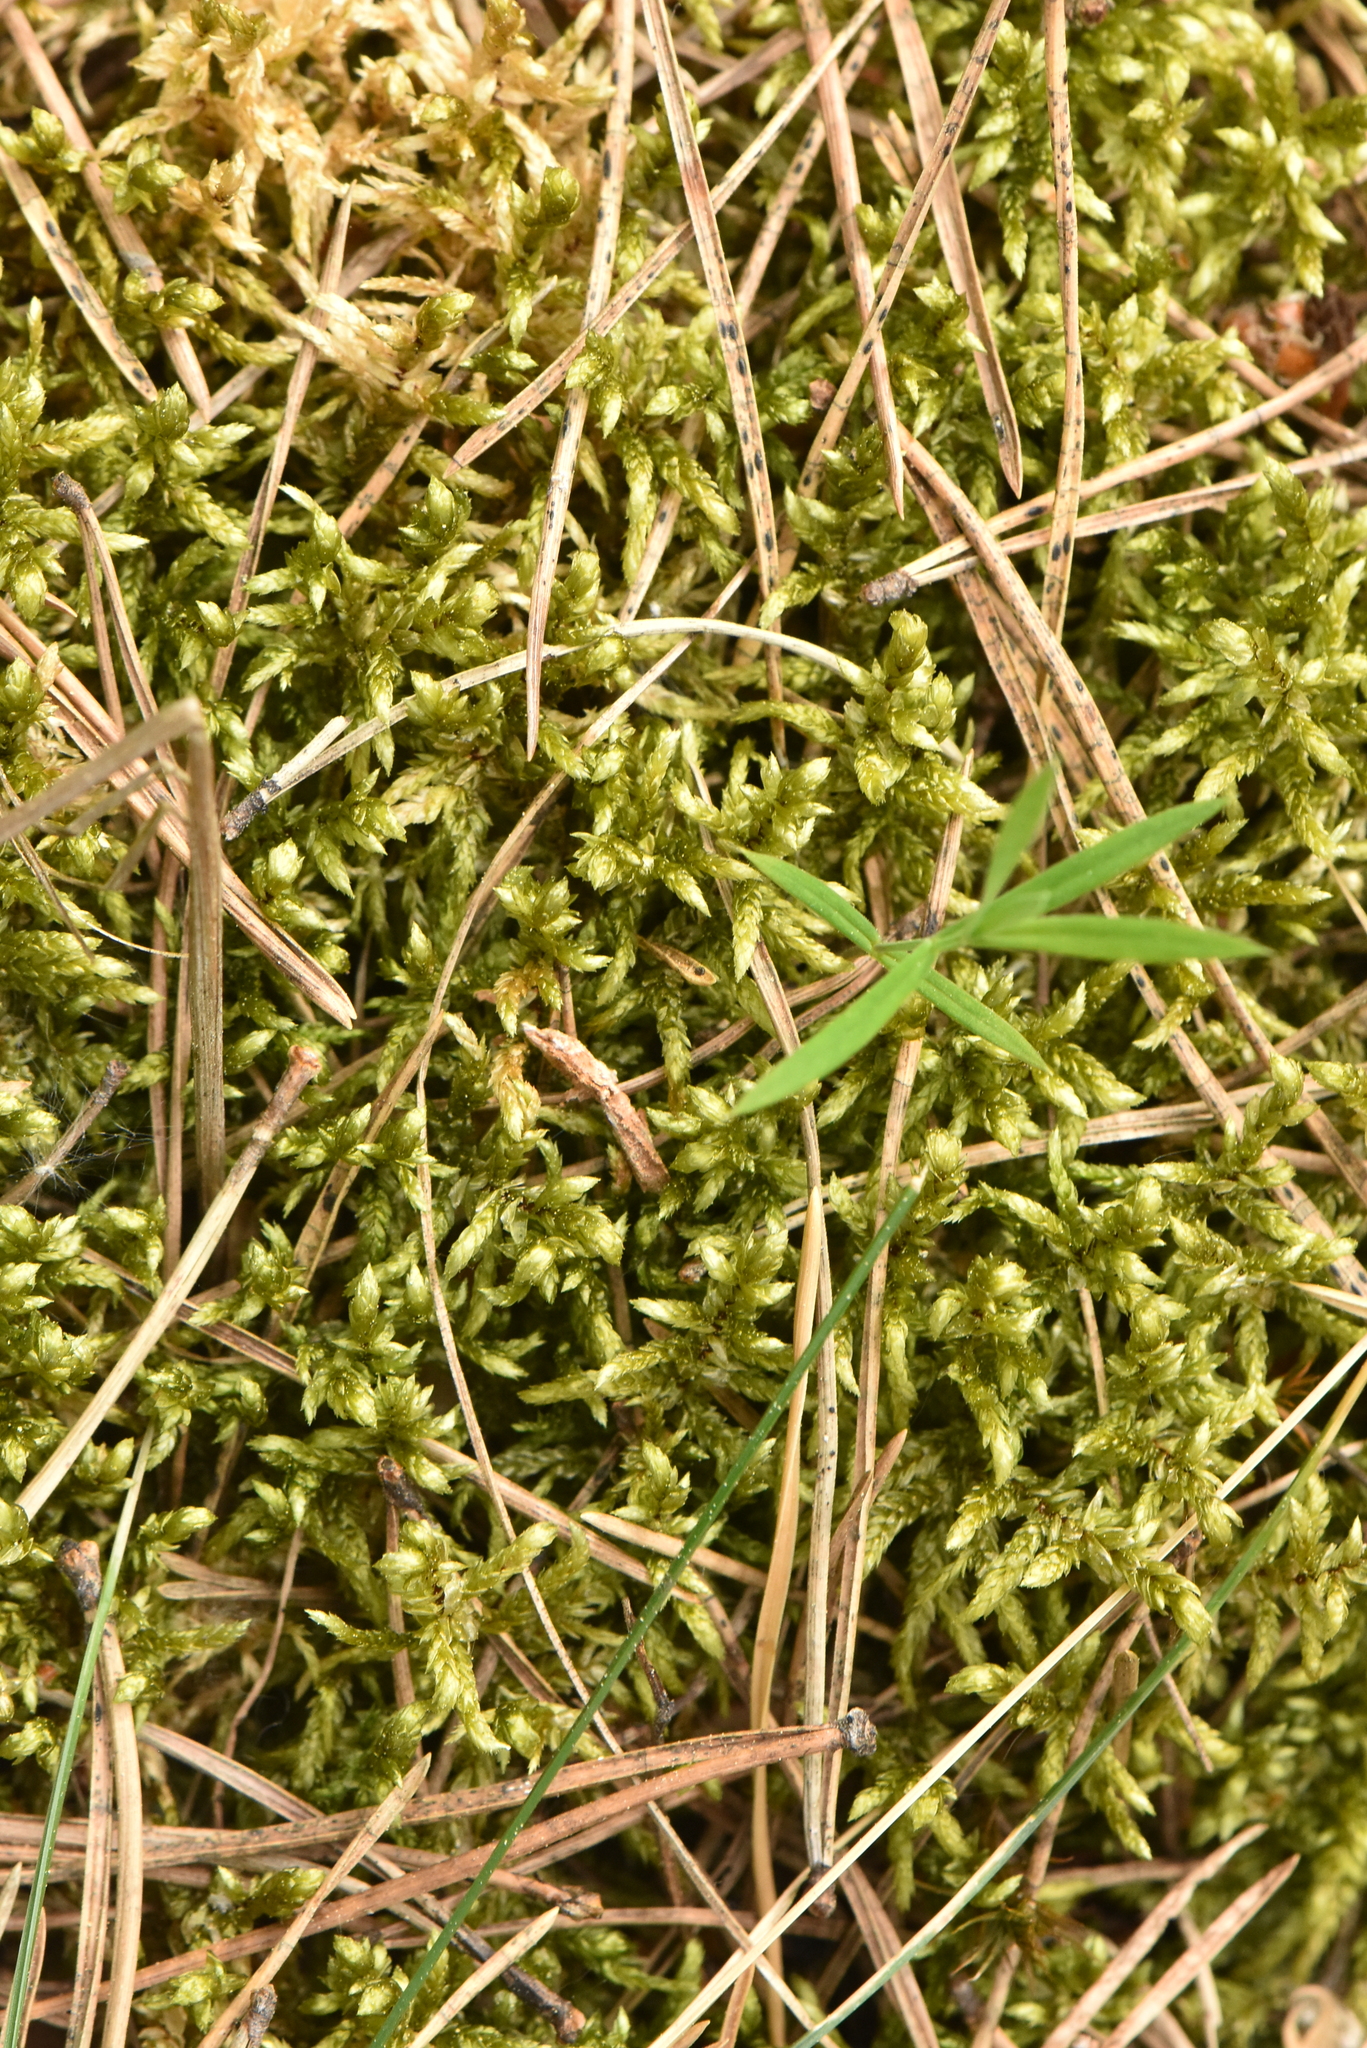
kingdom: Plantae
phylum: Bryophyta
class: Bryopsida
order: Hypnales
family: Hylocomiaceae
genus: Pleurozium
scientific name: Pleurozium schreberi
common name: Red-stemmed feather moss
